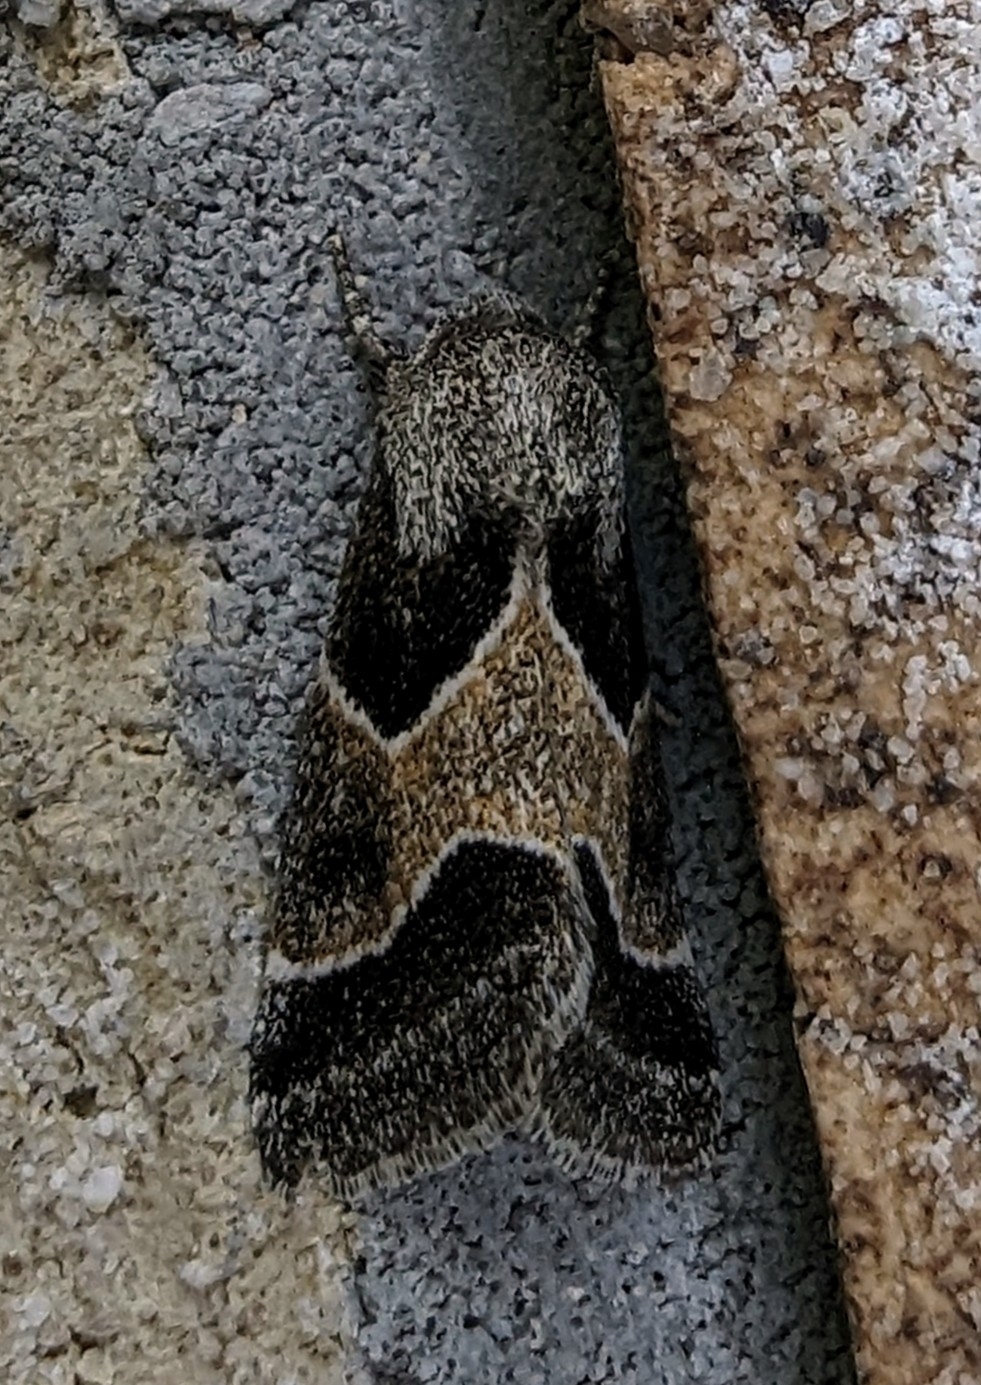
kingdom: Animalia
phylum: Arthropoda
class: Insecta
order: Lepidoptera
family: Noctuidae
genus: Schinia
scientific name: Schinia rivulosa
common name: Scarce meal-moth
